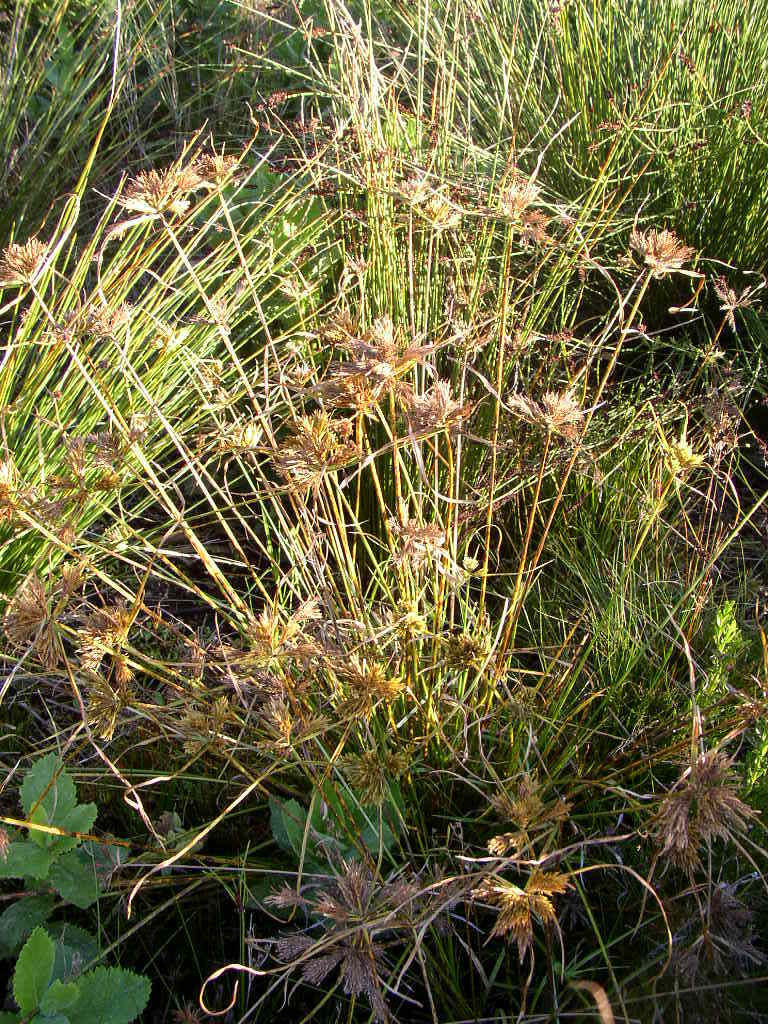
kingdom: Plantae
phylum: Tracheophyta
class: Liliopsida
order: Poales
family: Cyperaceae
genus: Cyperus
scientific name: Cyperus polystachyos
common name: Bunchy flat sedge
